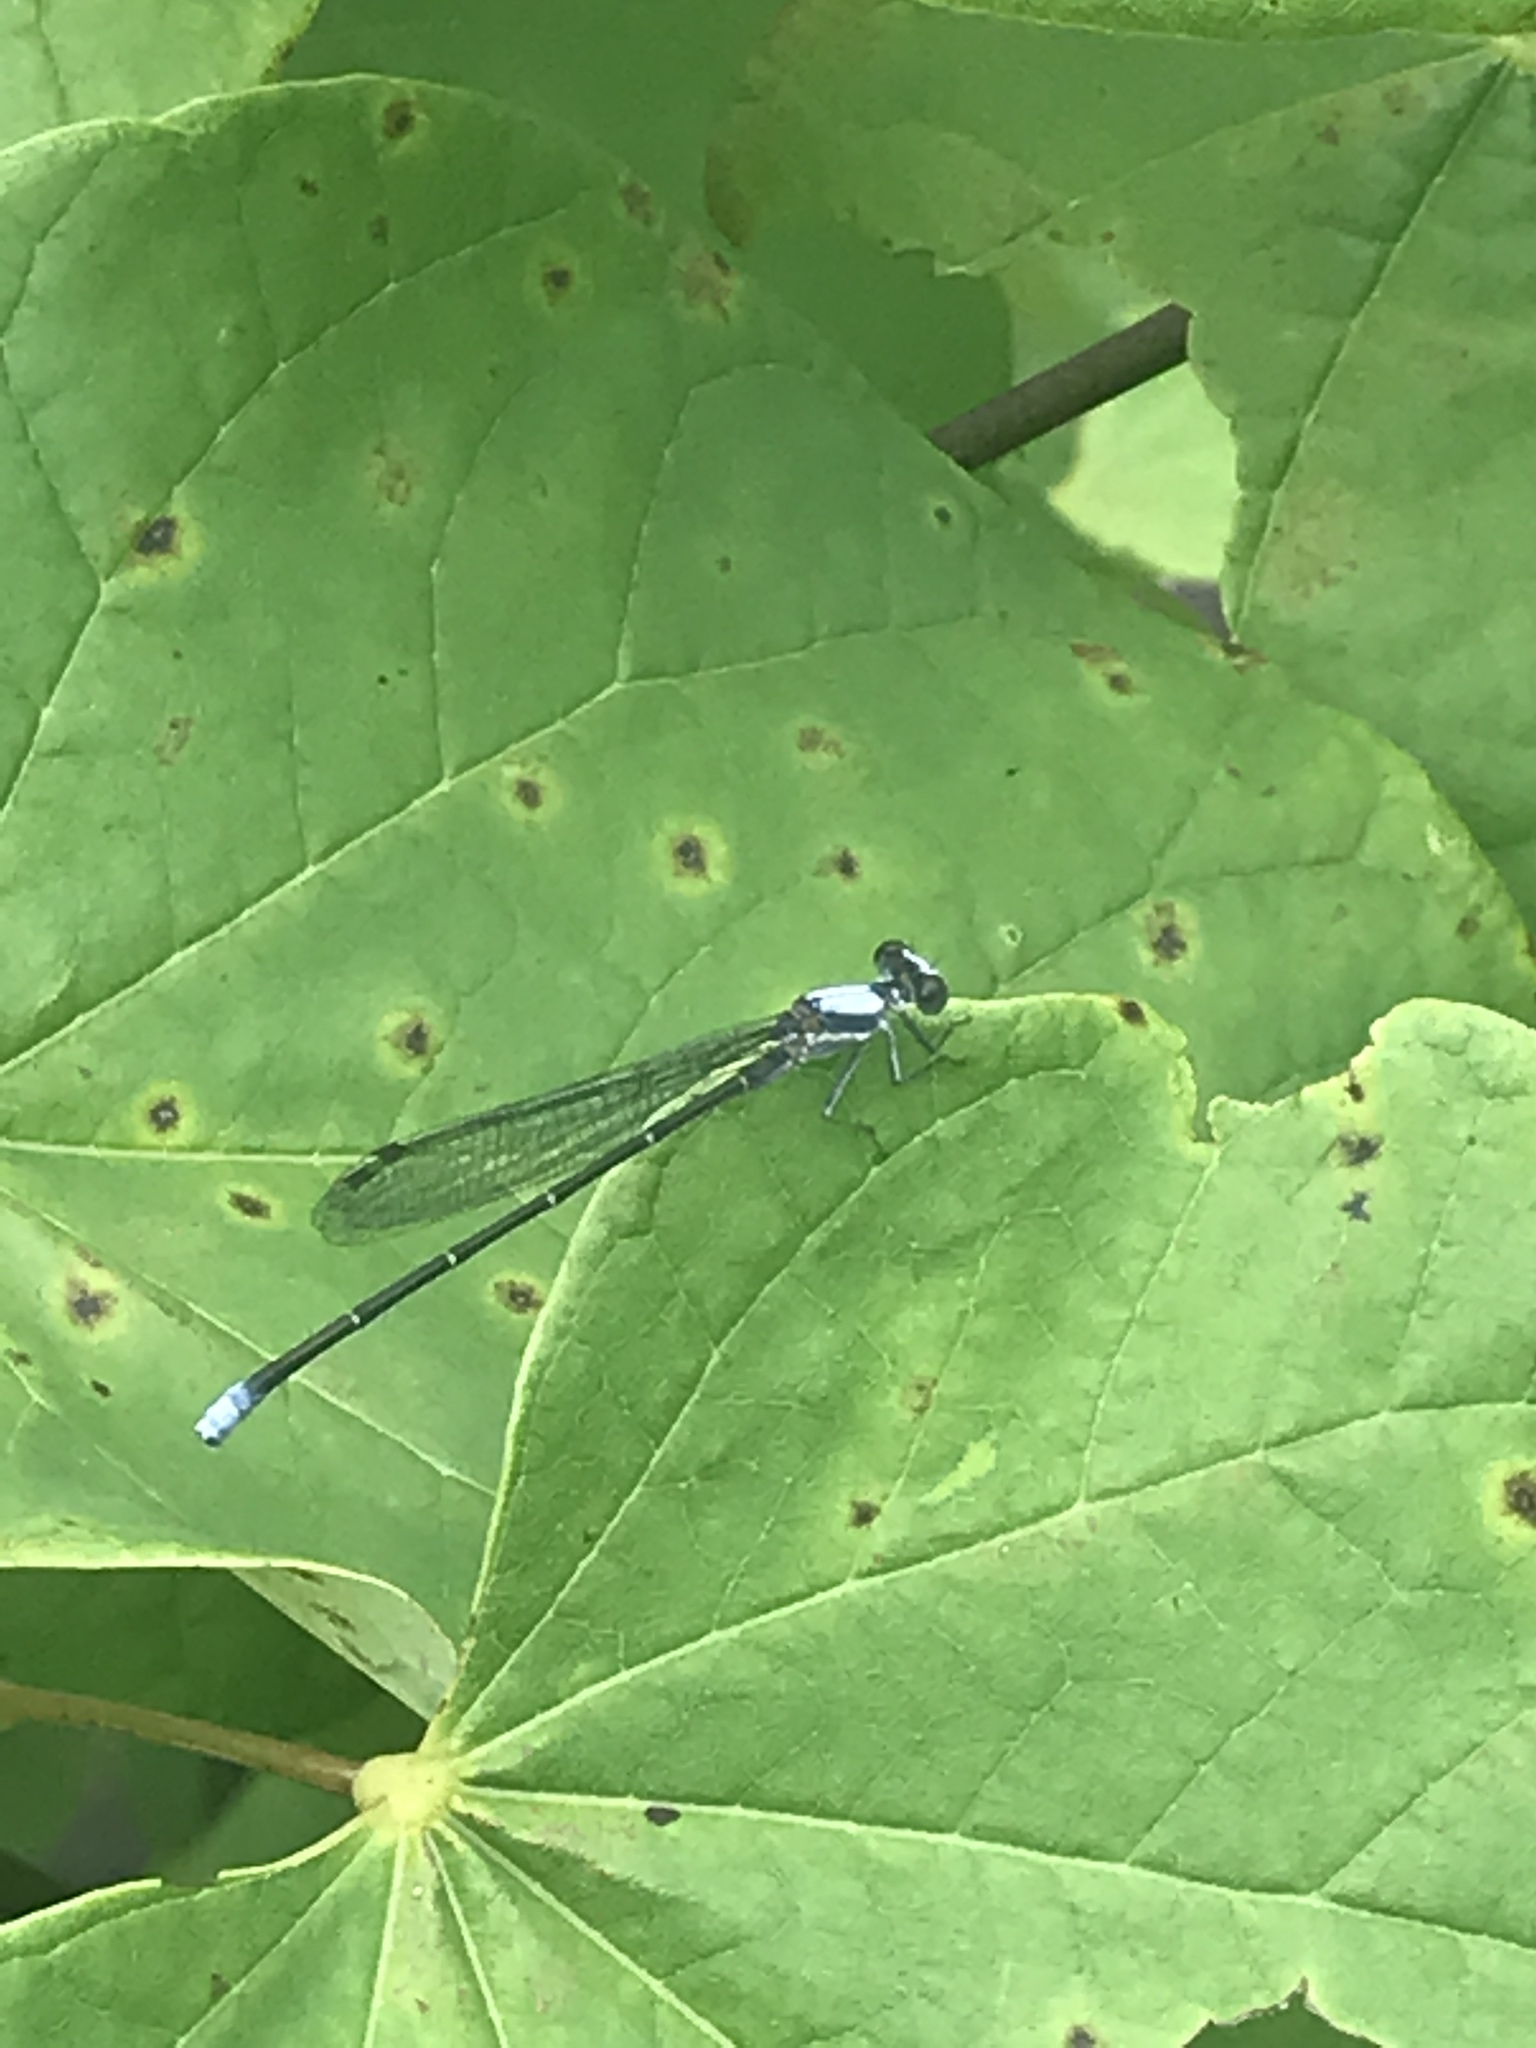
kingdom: Animalia
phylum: Arthropoda
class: Insecta
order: Odonata
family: Coenagrionidae
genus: Argia
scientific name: Argia moesta
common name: Powdered dancer
